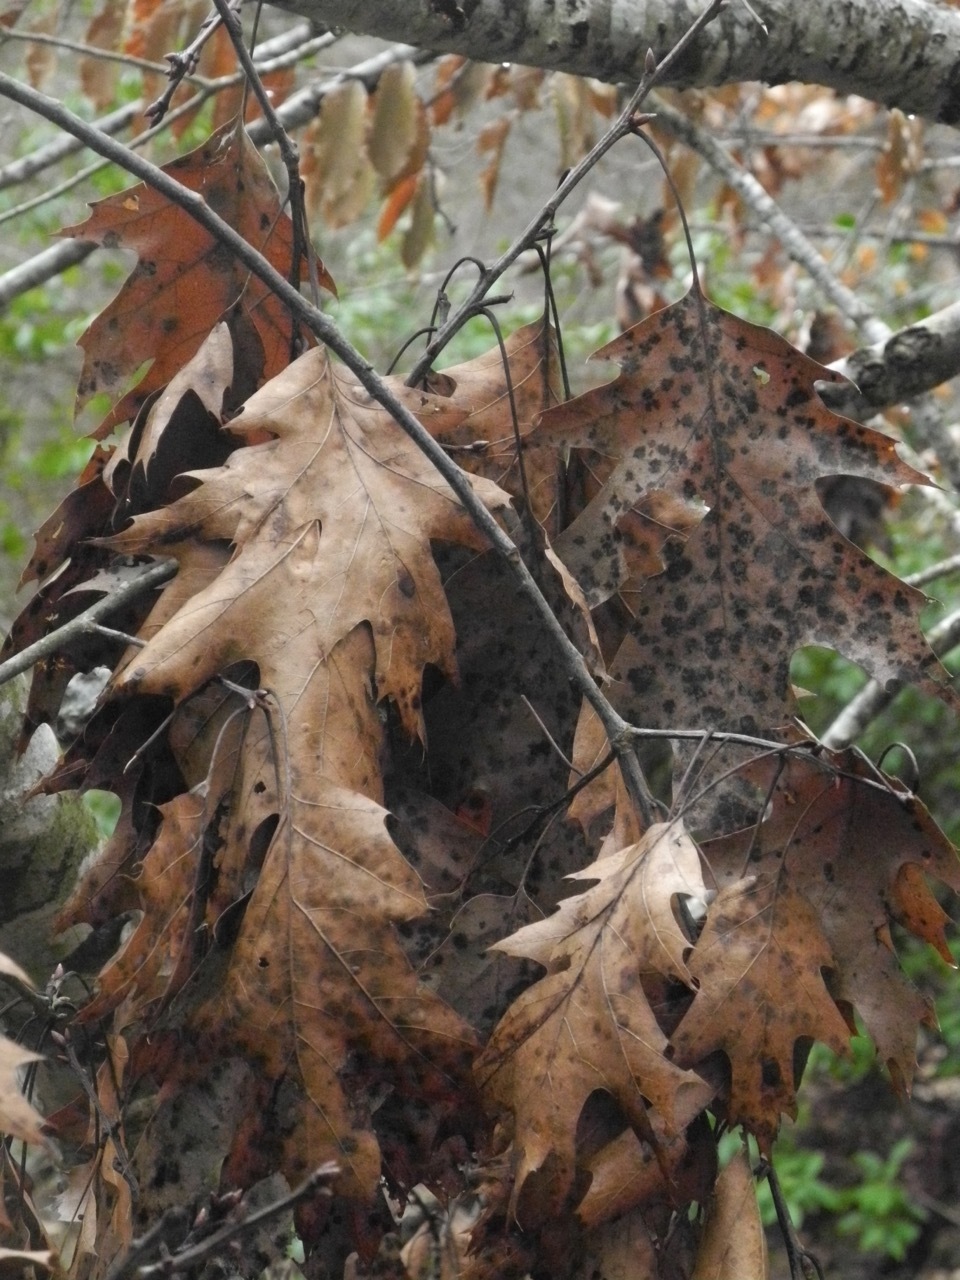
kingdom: Plantae
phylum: Tracheophyta
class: Magnoliopsida
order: Fagales
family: Fagaceae
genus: Quercus
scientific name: Quercus rubra
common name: Red oak
